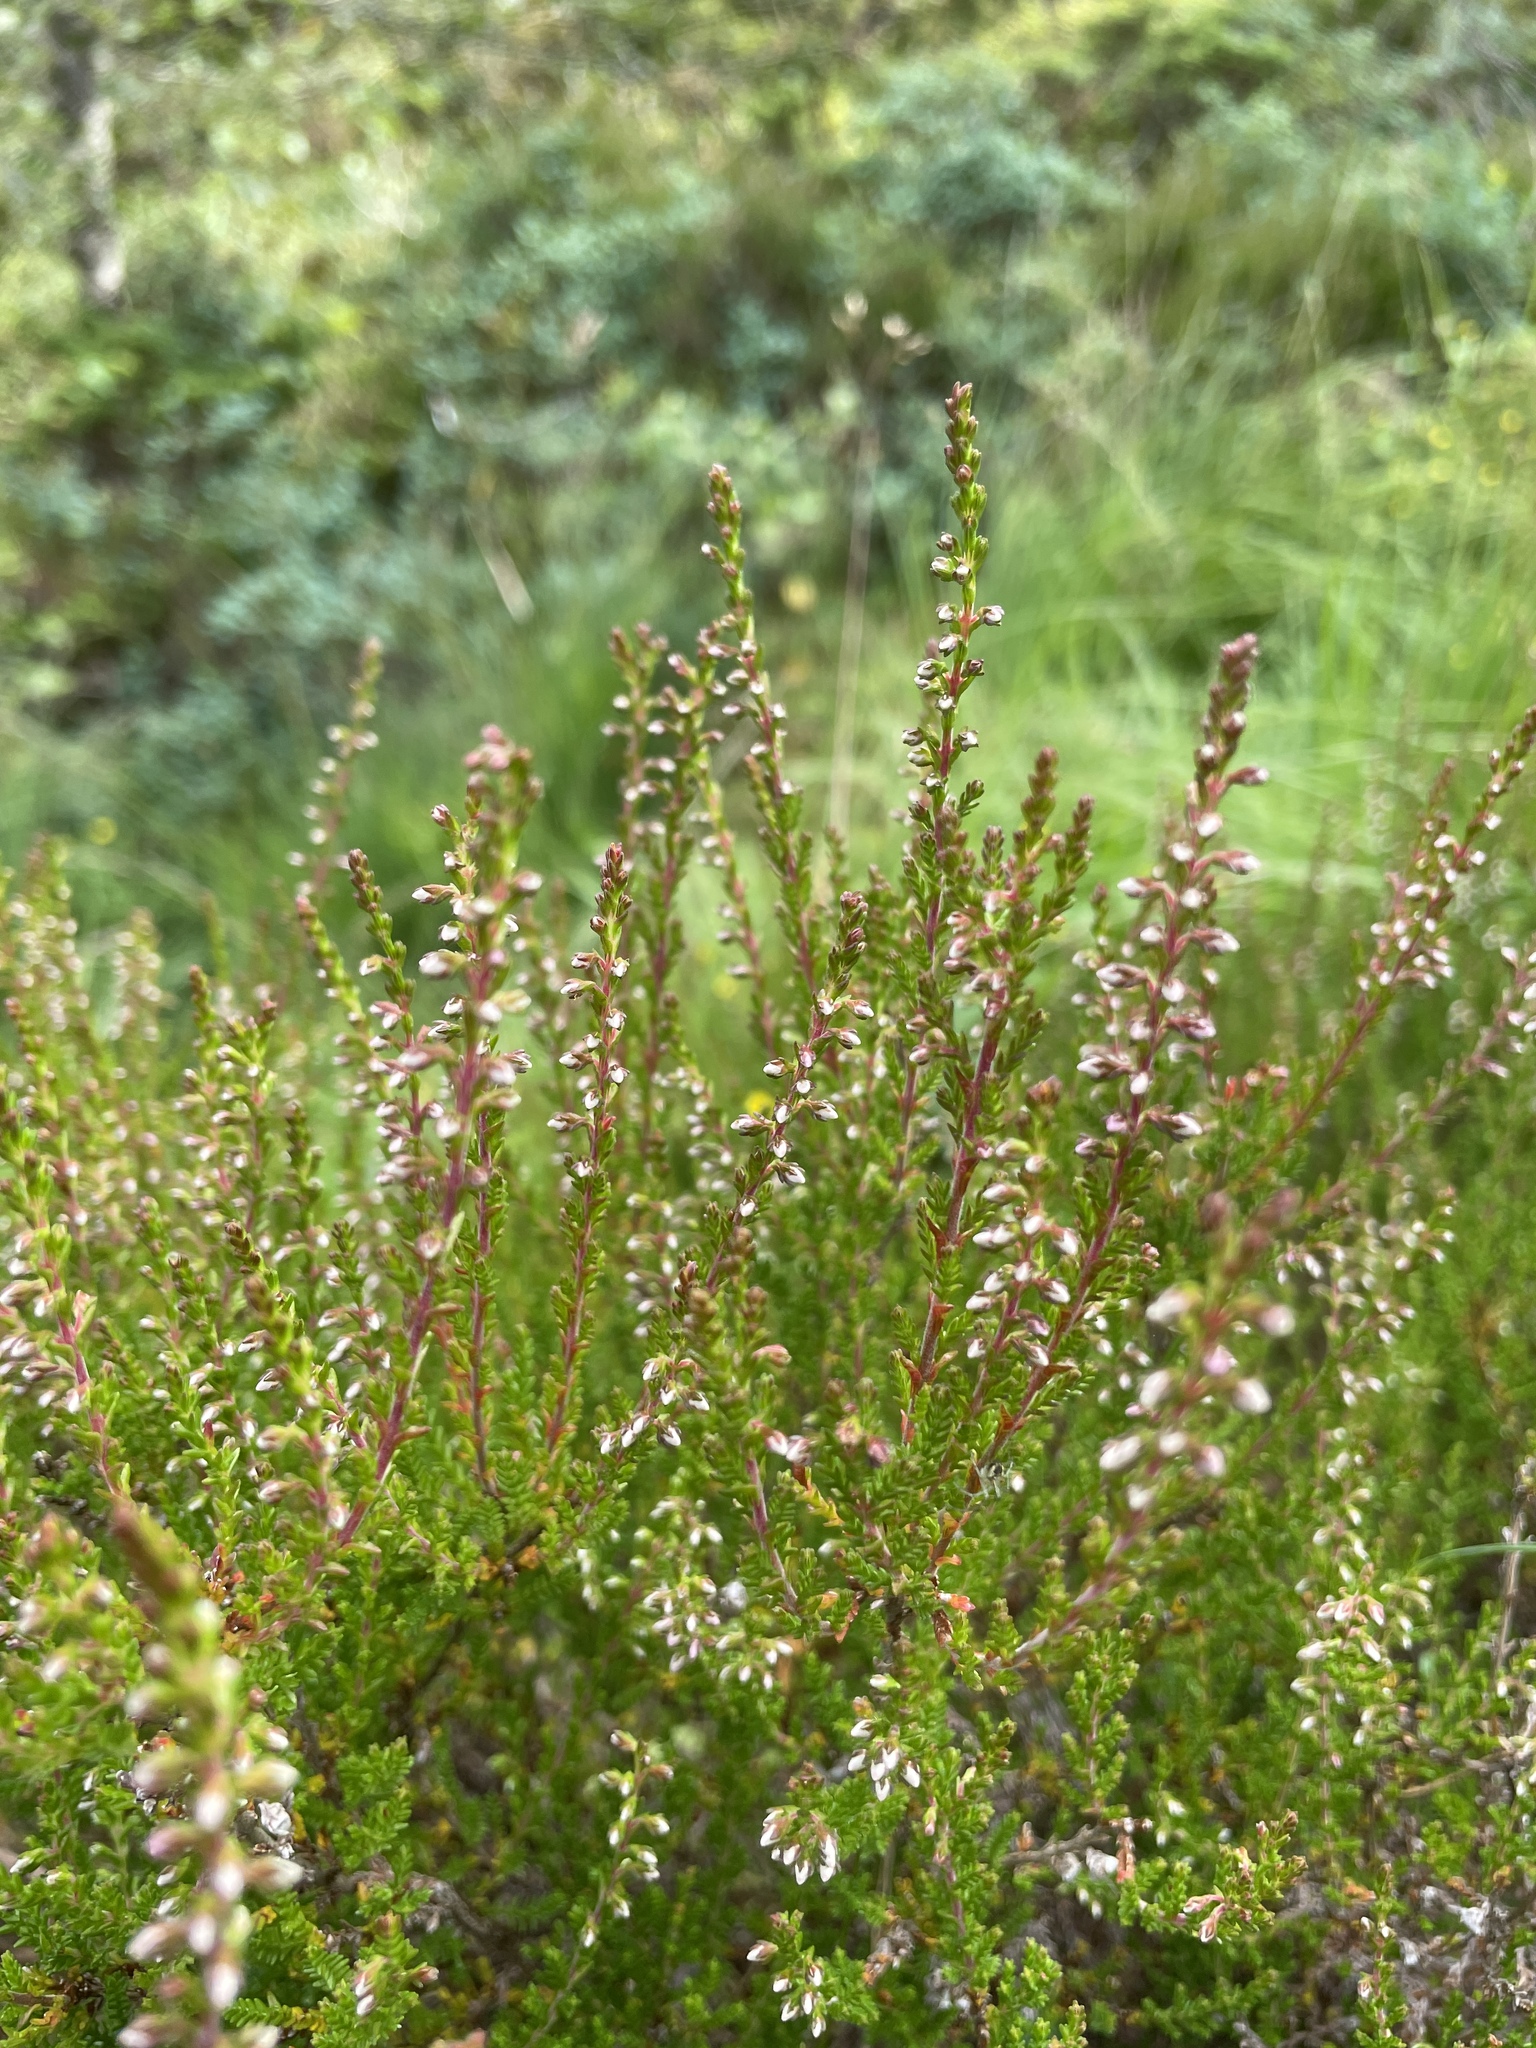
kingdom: Plantae
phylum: Tracheophyta
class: Magnoliopsida
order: Ericales
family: Ericaceae
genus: Calluna
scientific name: Calluna vulgaris
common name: Heather
